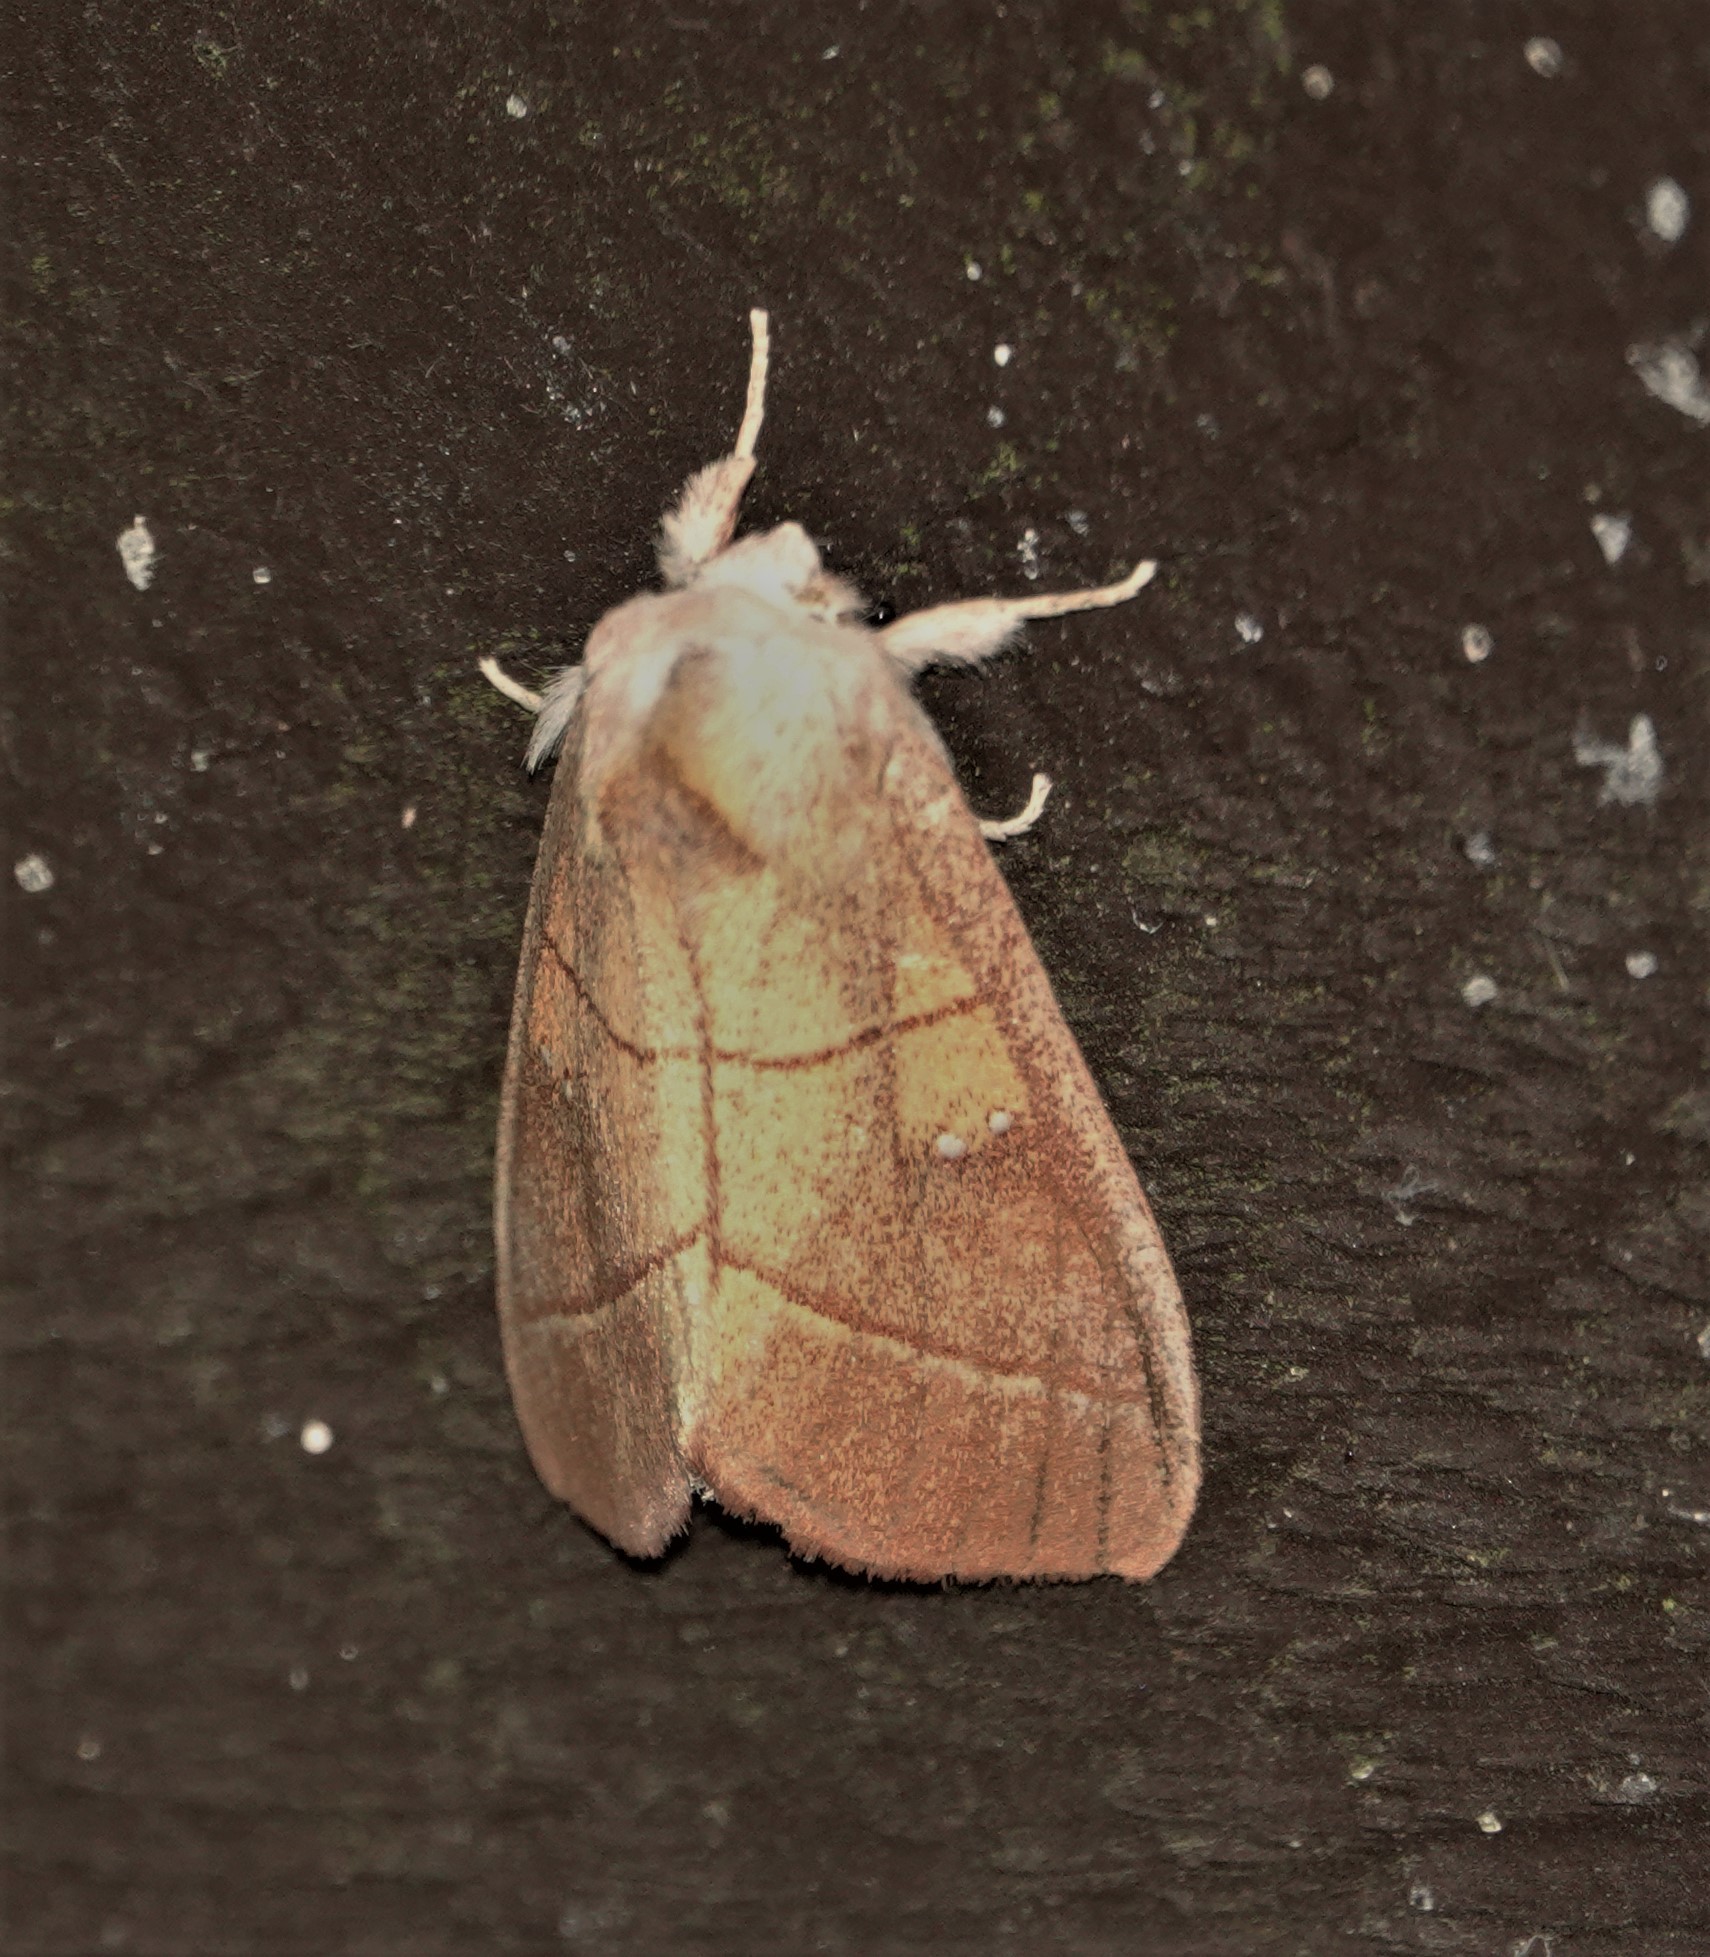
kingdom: Animalia
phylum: Arthropoda
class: Insecta
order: Lepidoptera
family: Notodontidae
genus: Nadata
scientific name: Nadata gibbosa
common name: White-dotted prominent
